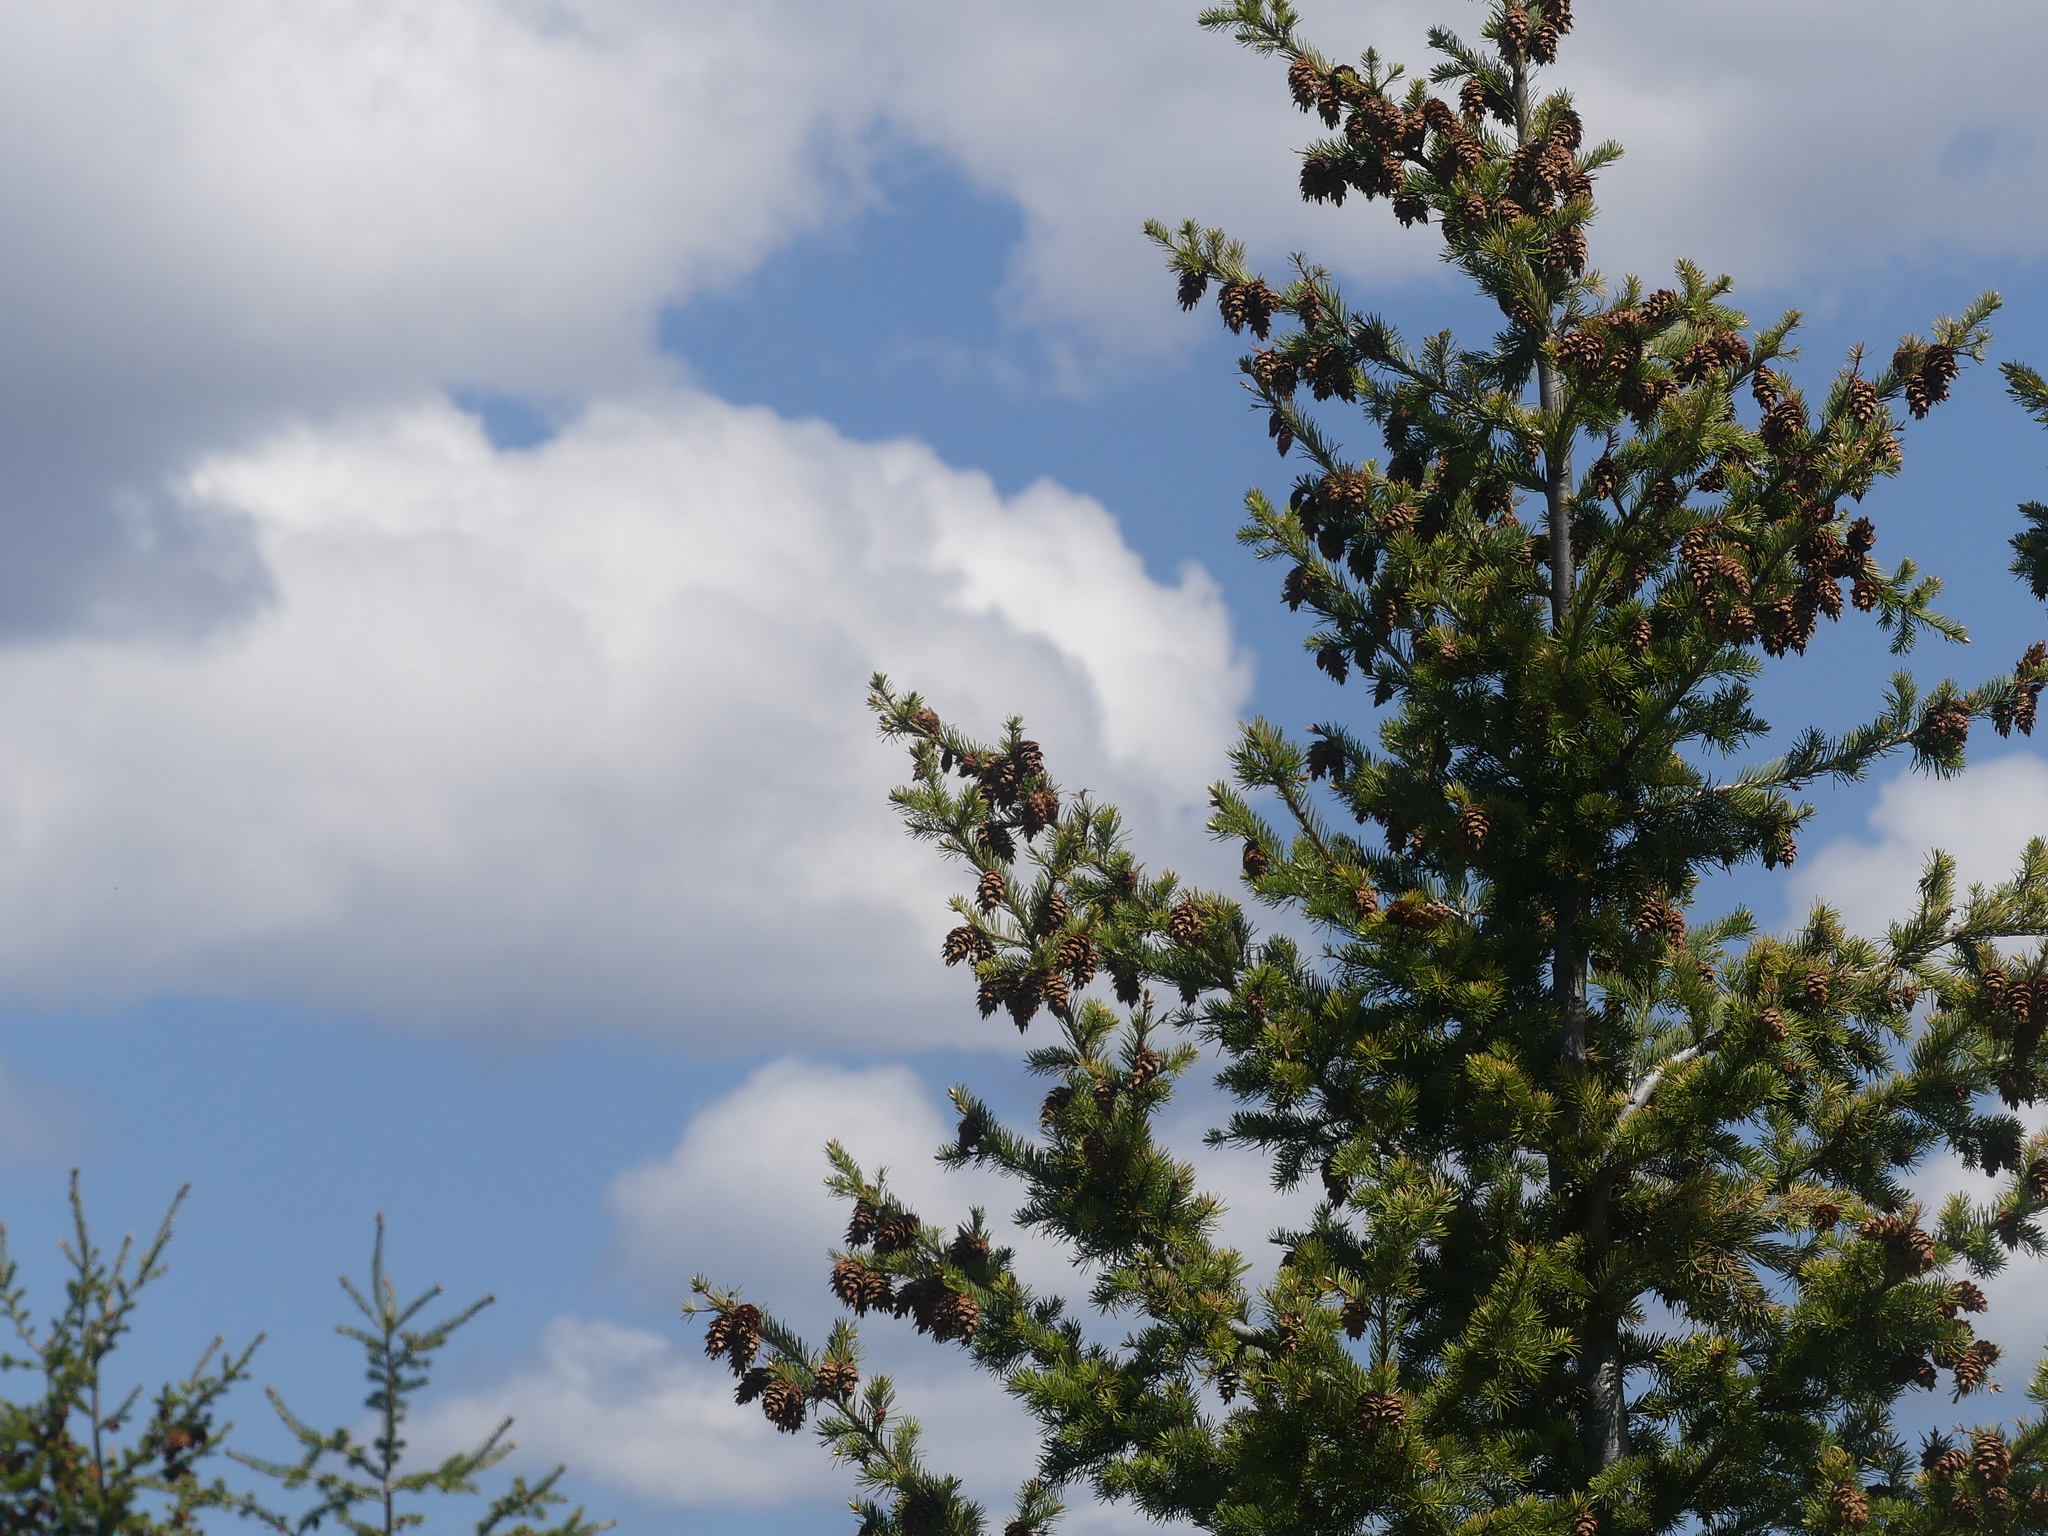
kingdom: Plantae
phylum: Tracheophyta
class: Pinopsida
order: Pinales
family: Pinaceae
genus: Pseudotsuga
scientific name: Pseudotsuga menziesii
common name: Douglas fir
